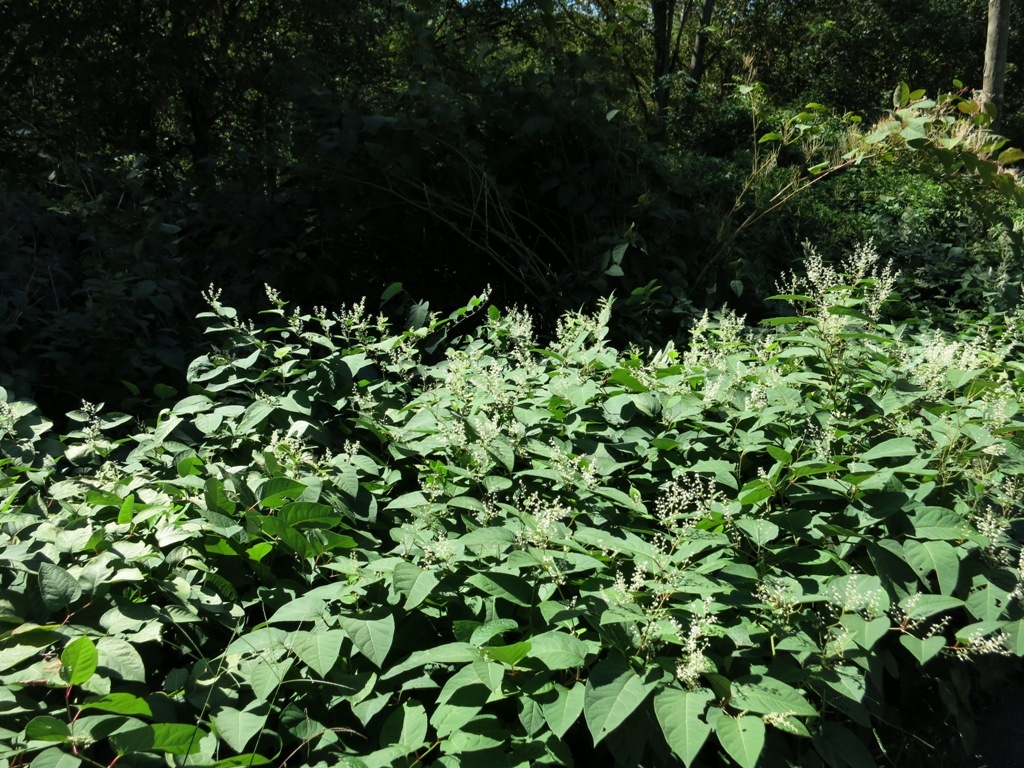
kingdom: Plantae
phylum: Tracheophyta
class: Magnoliopsida
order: Caryophyllales
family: Polygonaceae
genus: Reynoutria
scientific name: Reynoutria japonica
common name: Japanese knotweed
